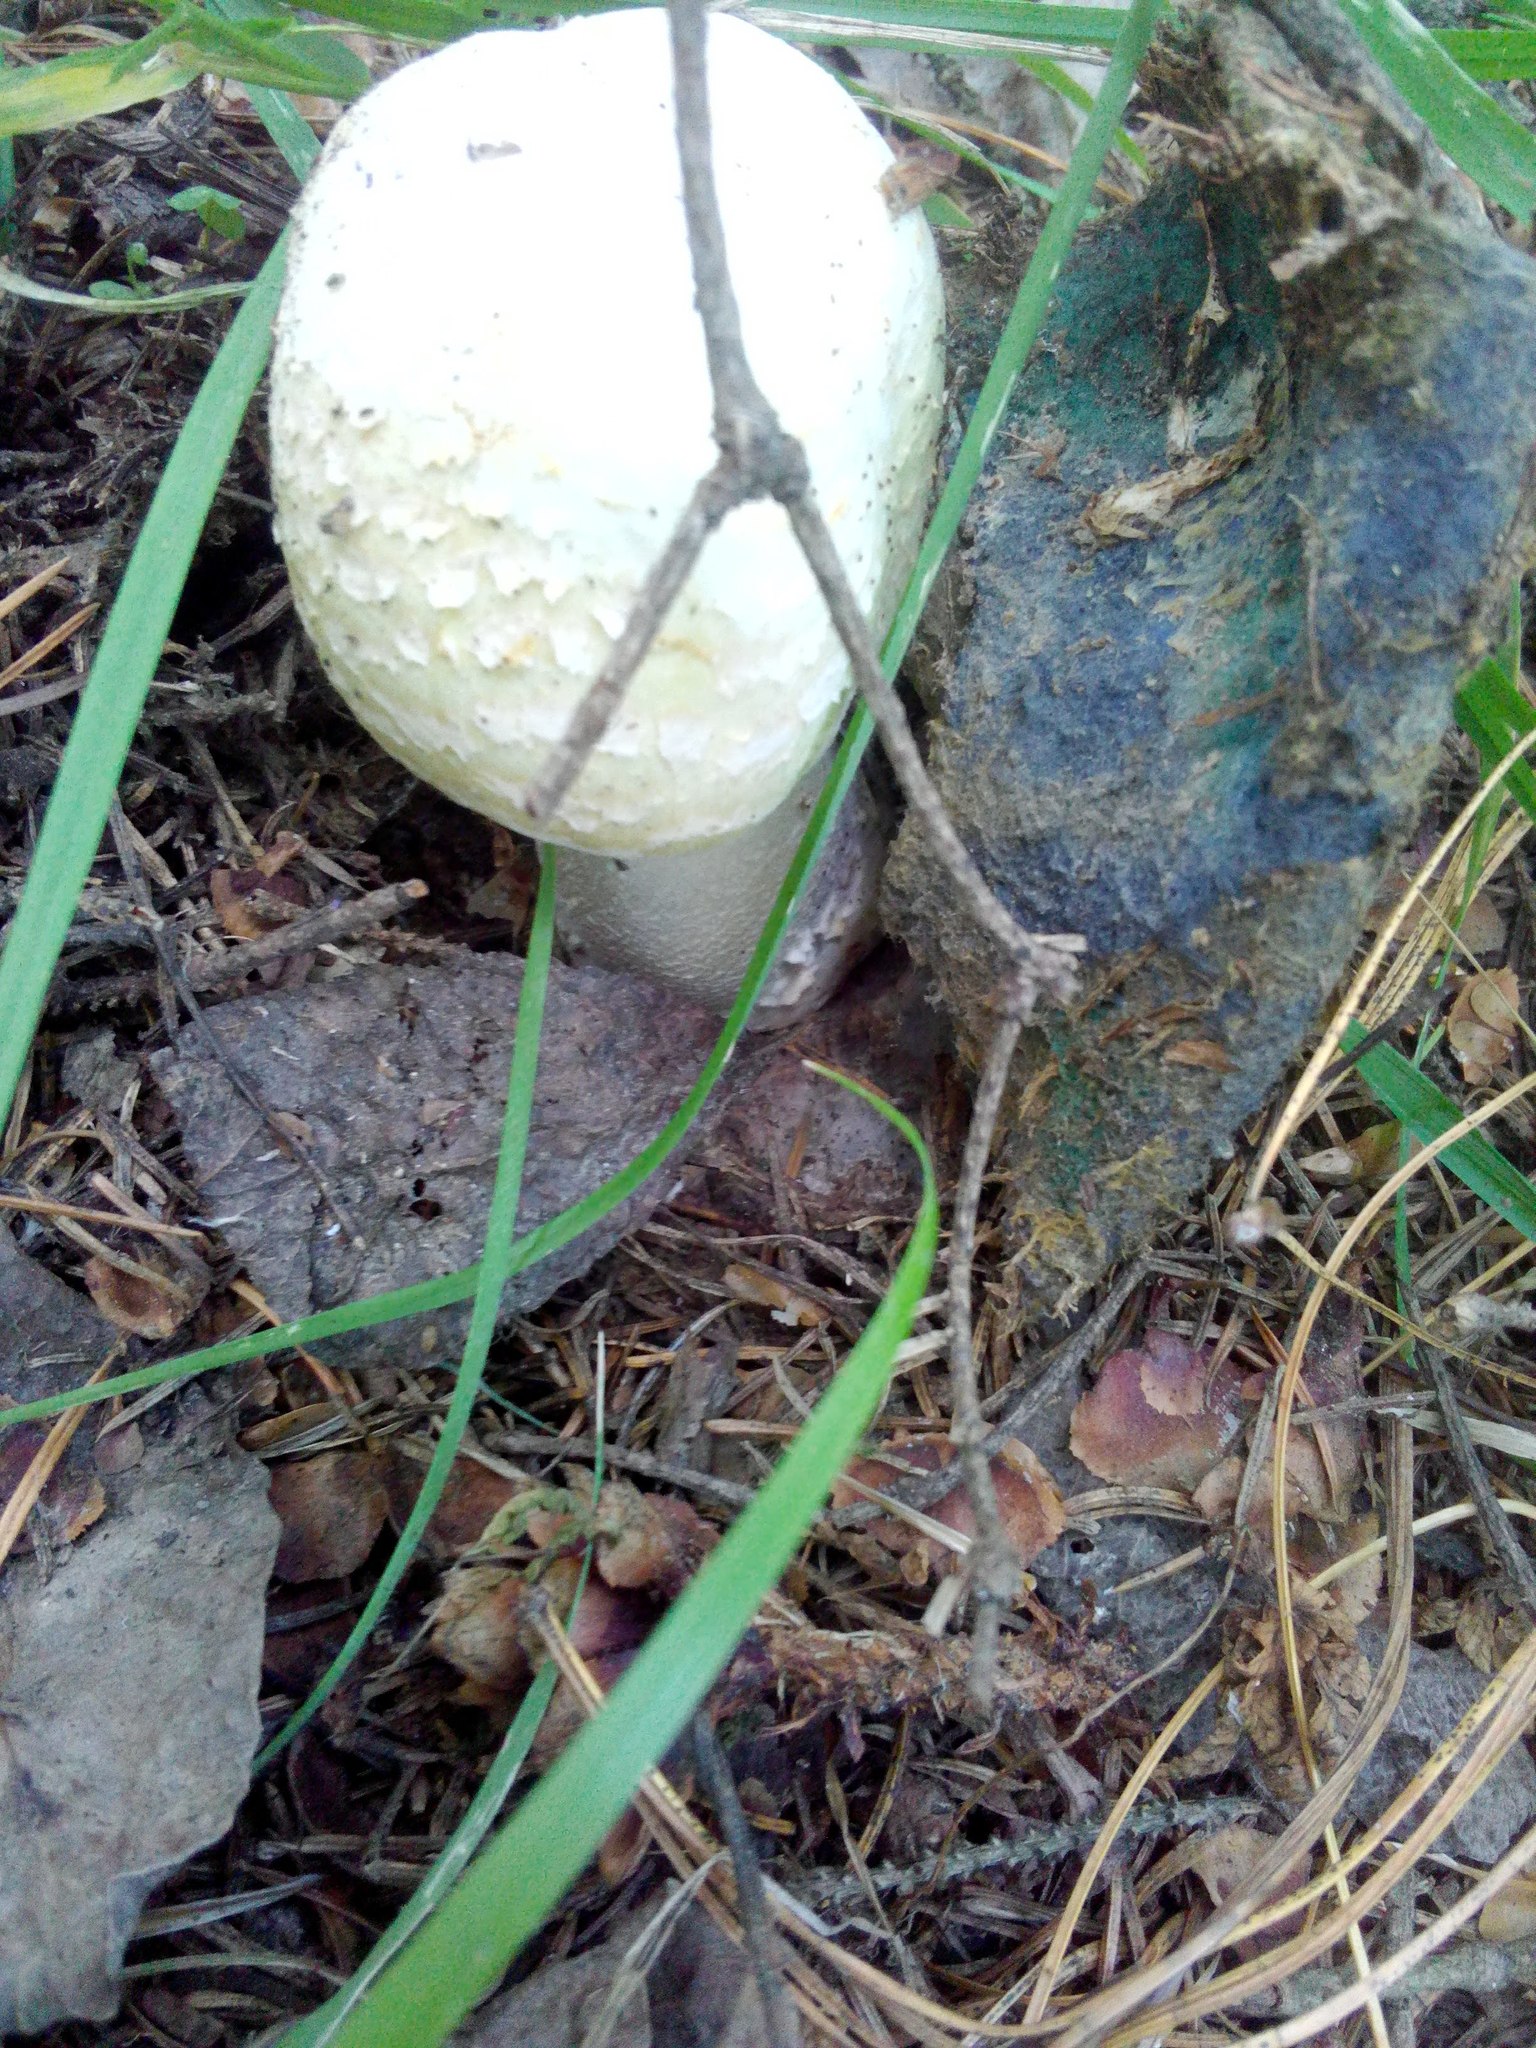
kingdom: Fungi
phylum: Basidiomycota
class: Agaricomycetes
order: Agaricales
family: Agaricaceae
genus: Agaricus
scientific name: Agaricus xanthodermus
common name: Yellow stainer
